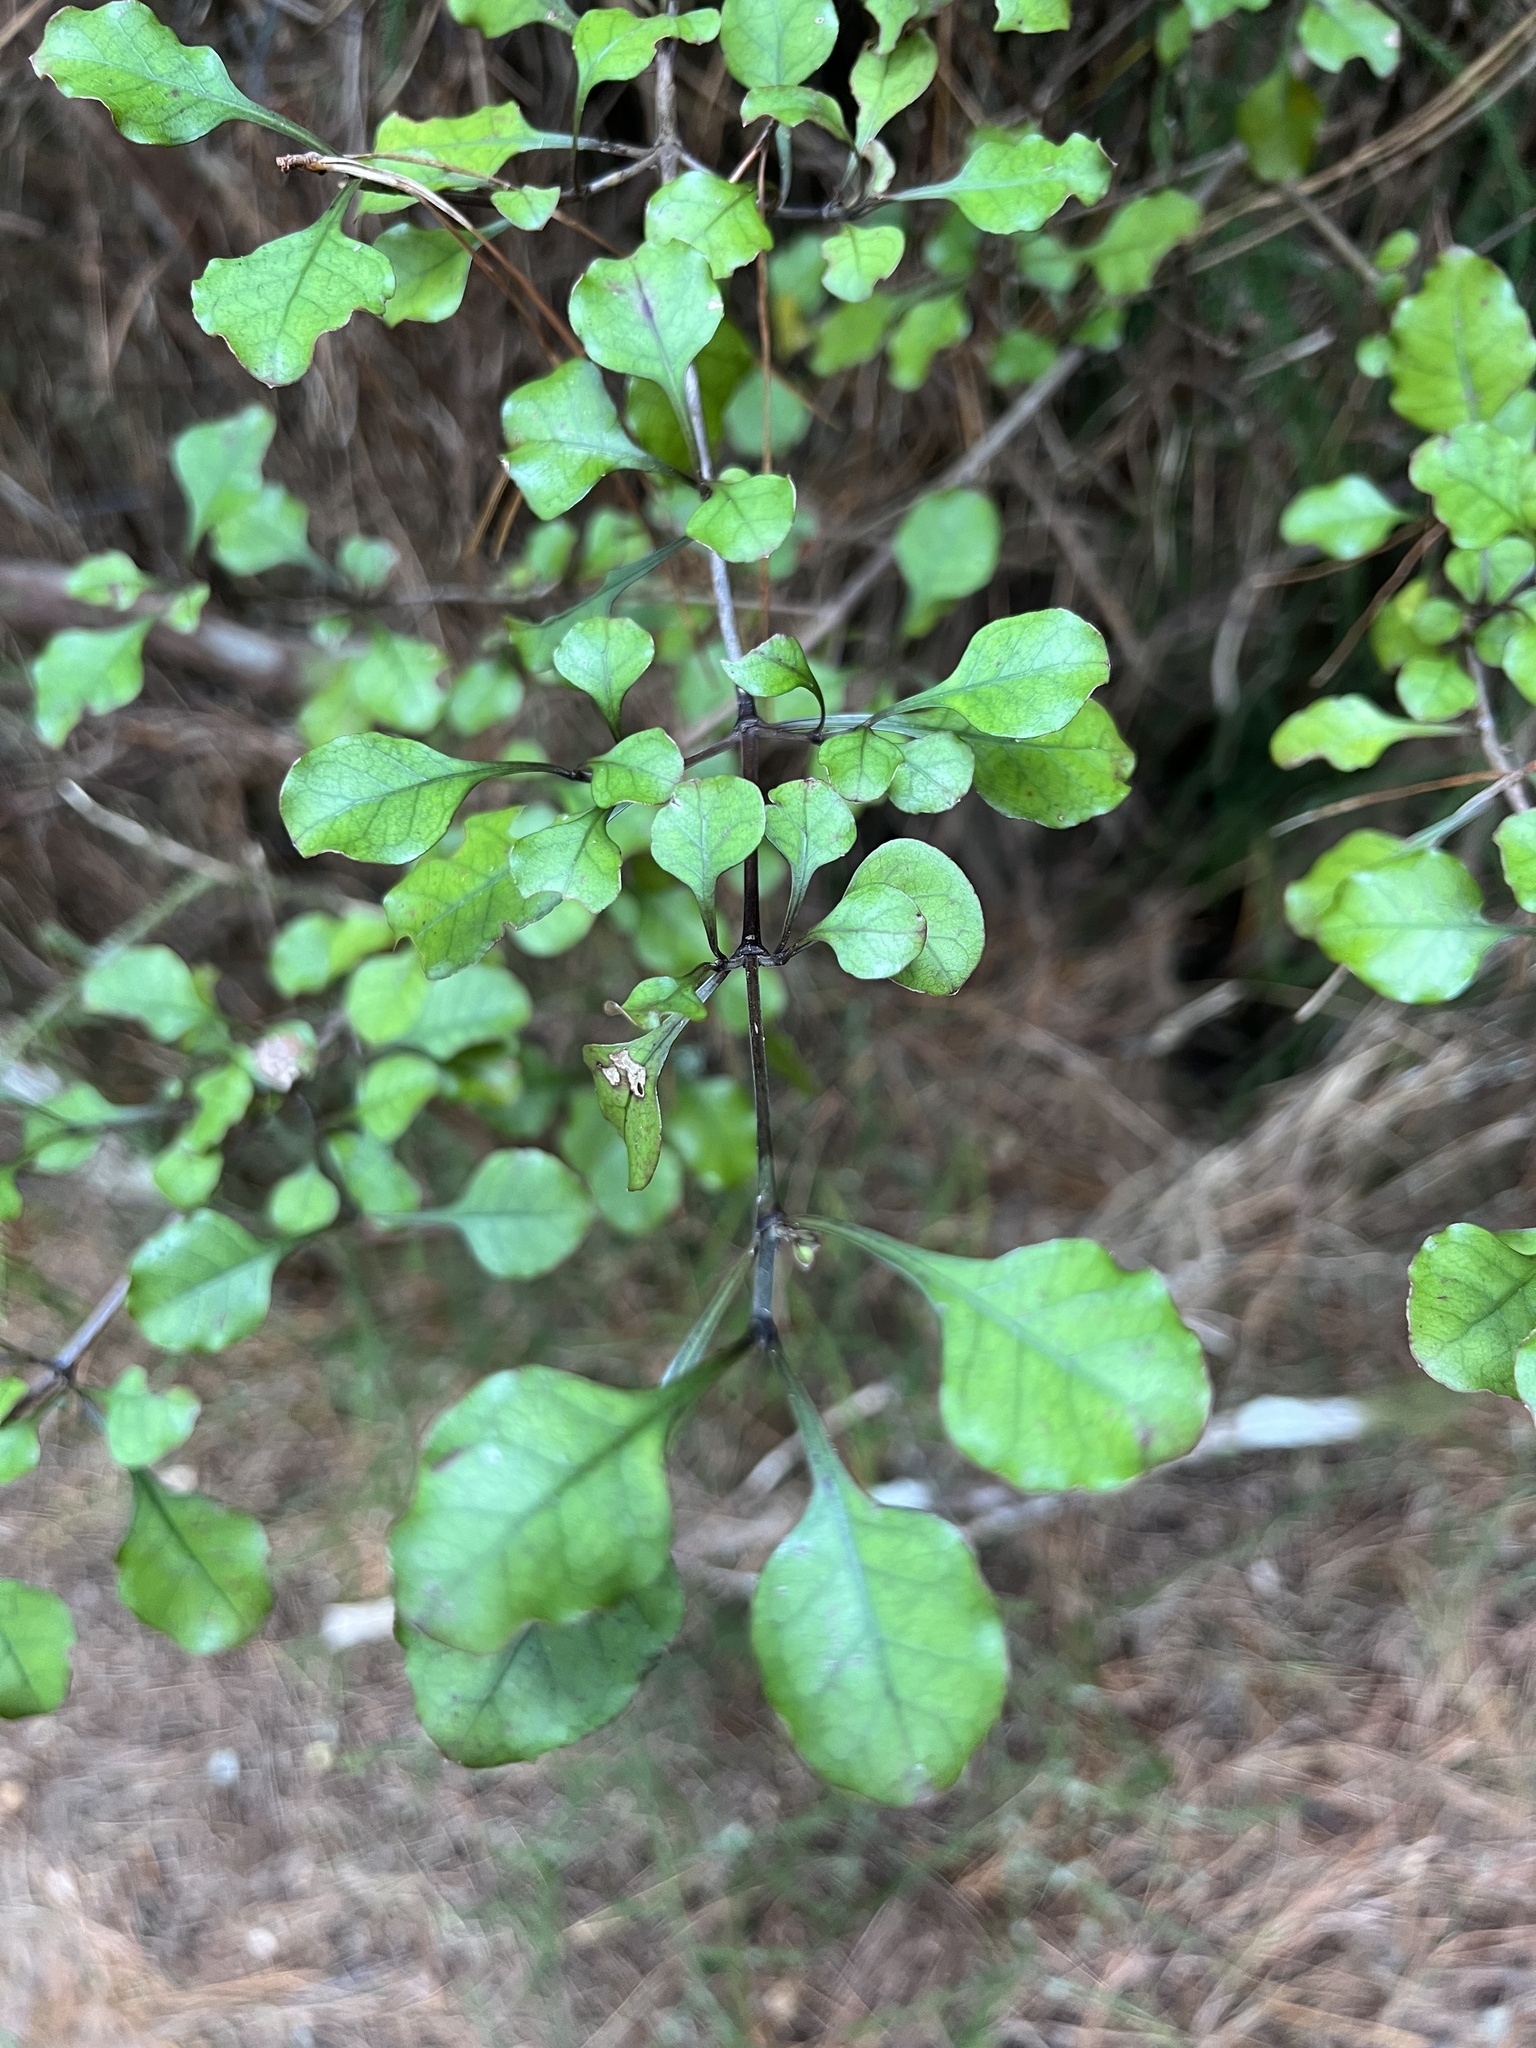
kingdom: Plantae
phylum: Tracheophyta
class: Magnoliopsida
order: Gentianales
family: Rubiaceae
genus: Coprosma
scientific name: Coprosma arborea
